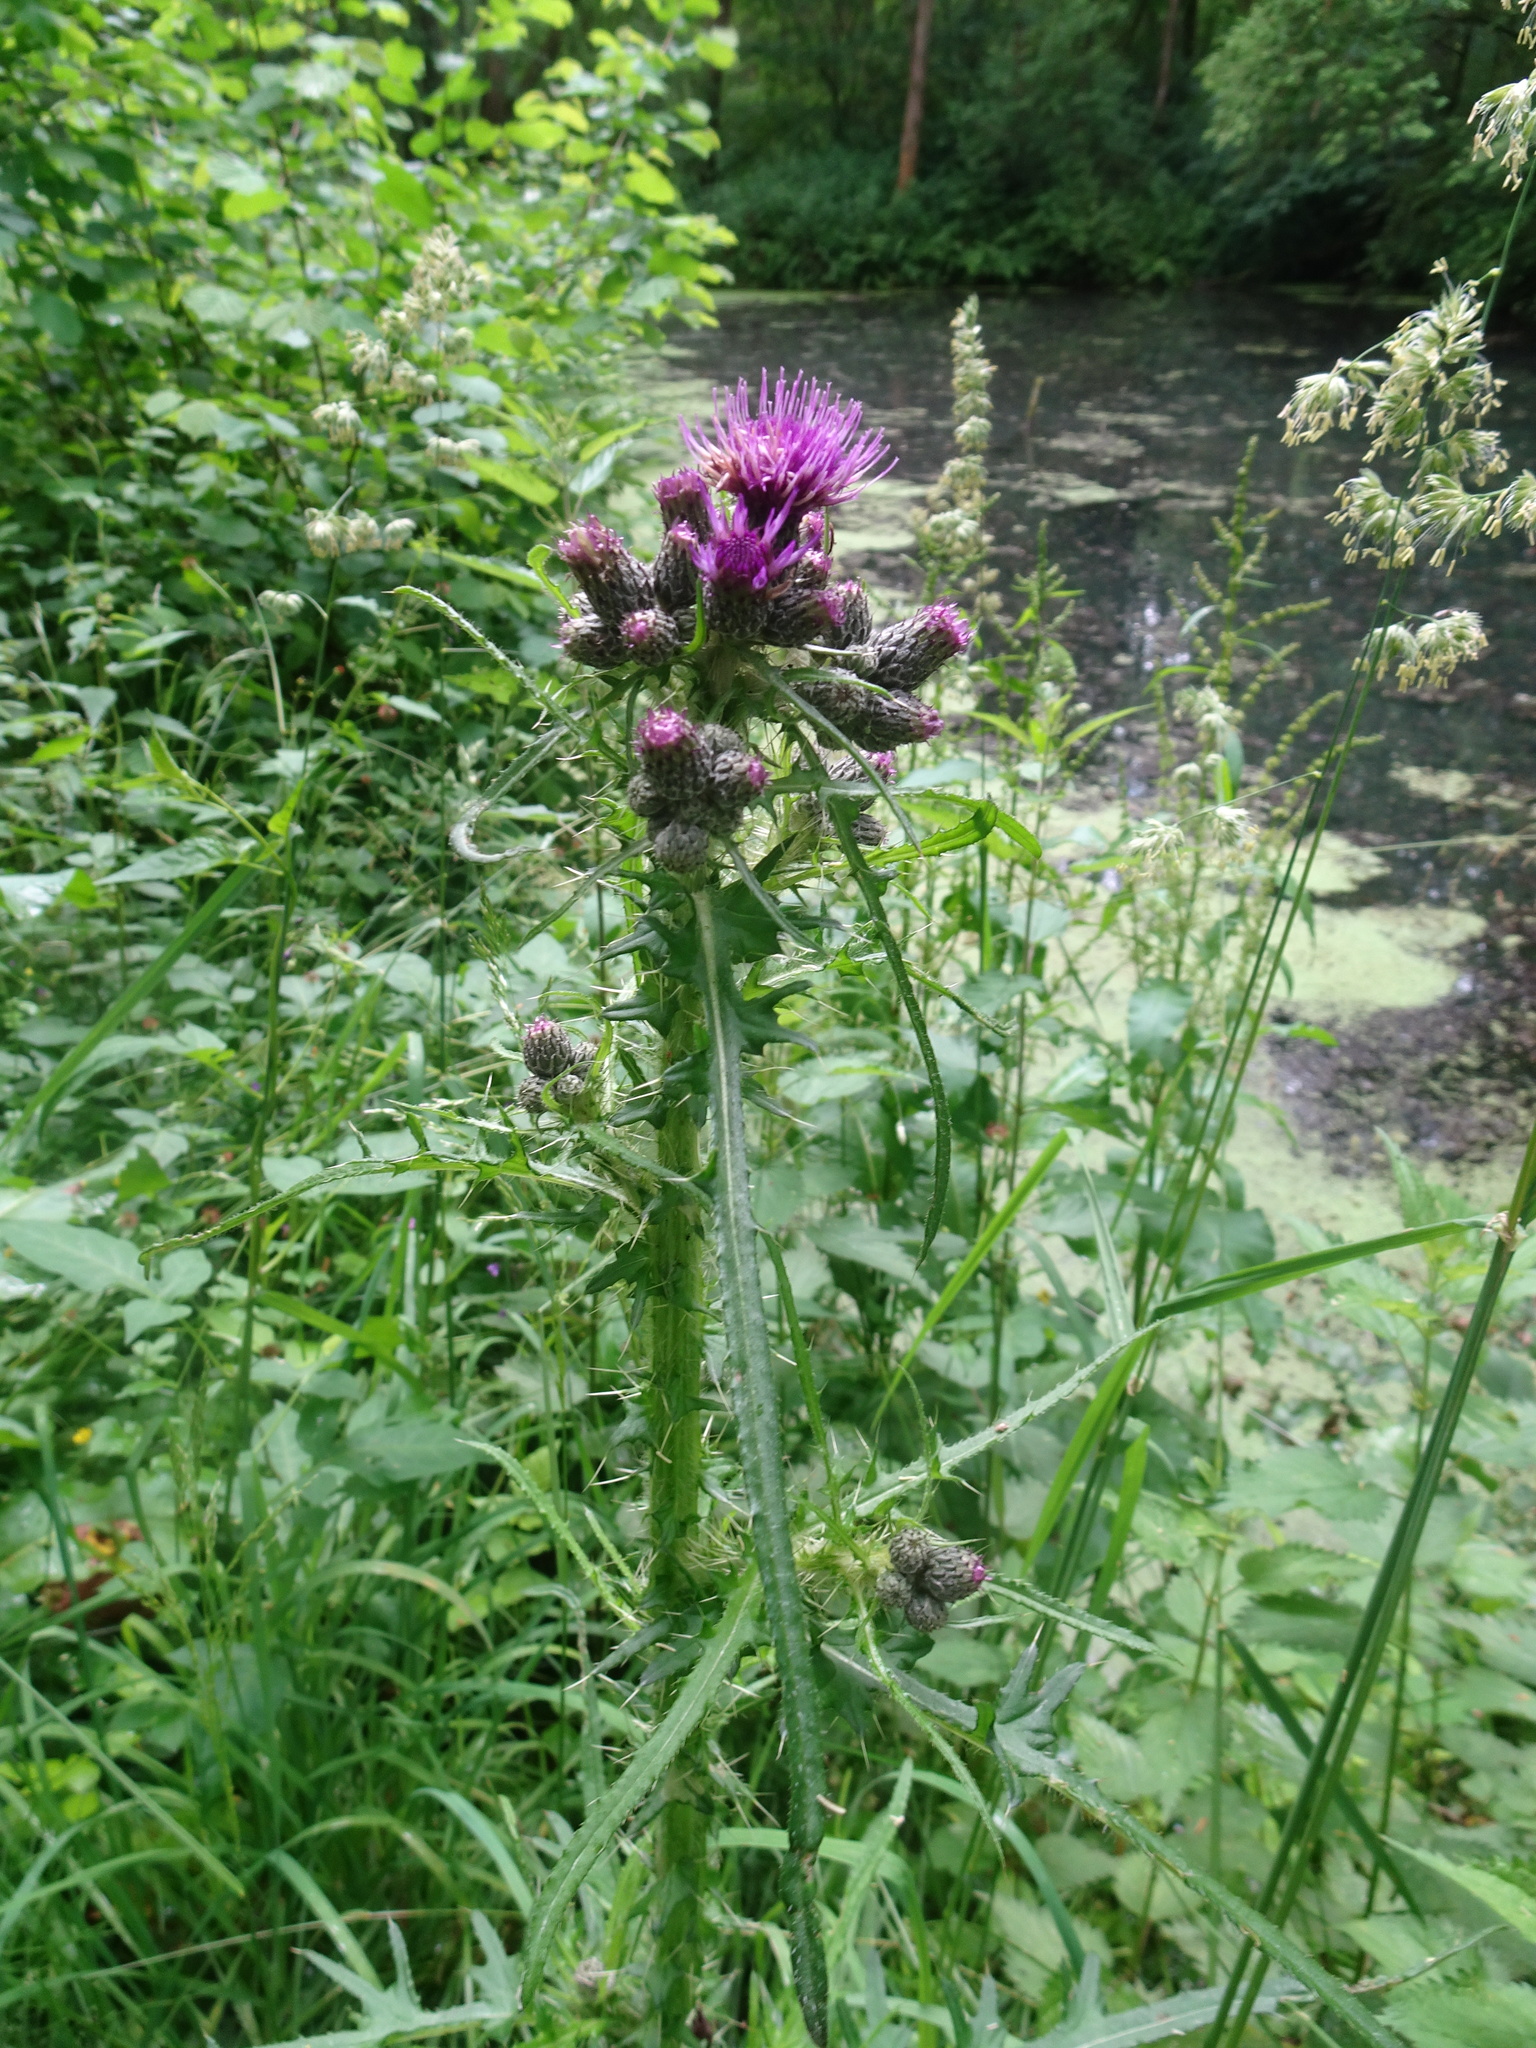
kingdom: Plantae
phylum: Tracheophyta
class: Magnoliopsida
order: Asterales
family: Asteraceae
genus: Cirsium
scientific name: Cirsium palustre
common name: Marsh thistle
